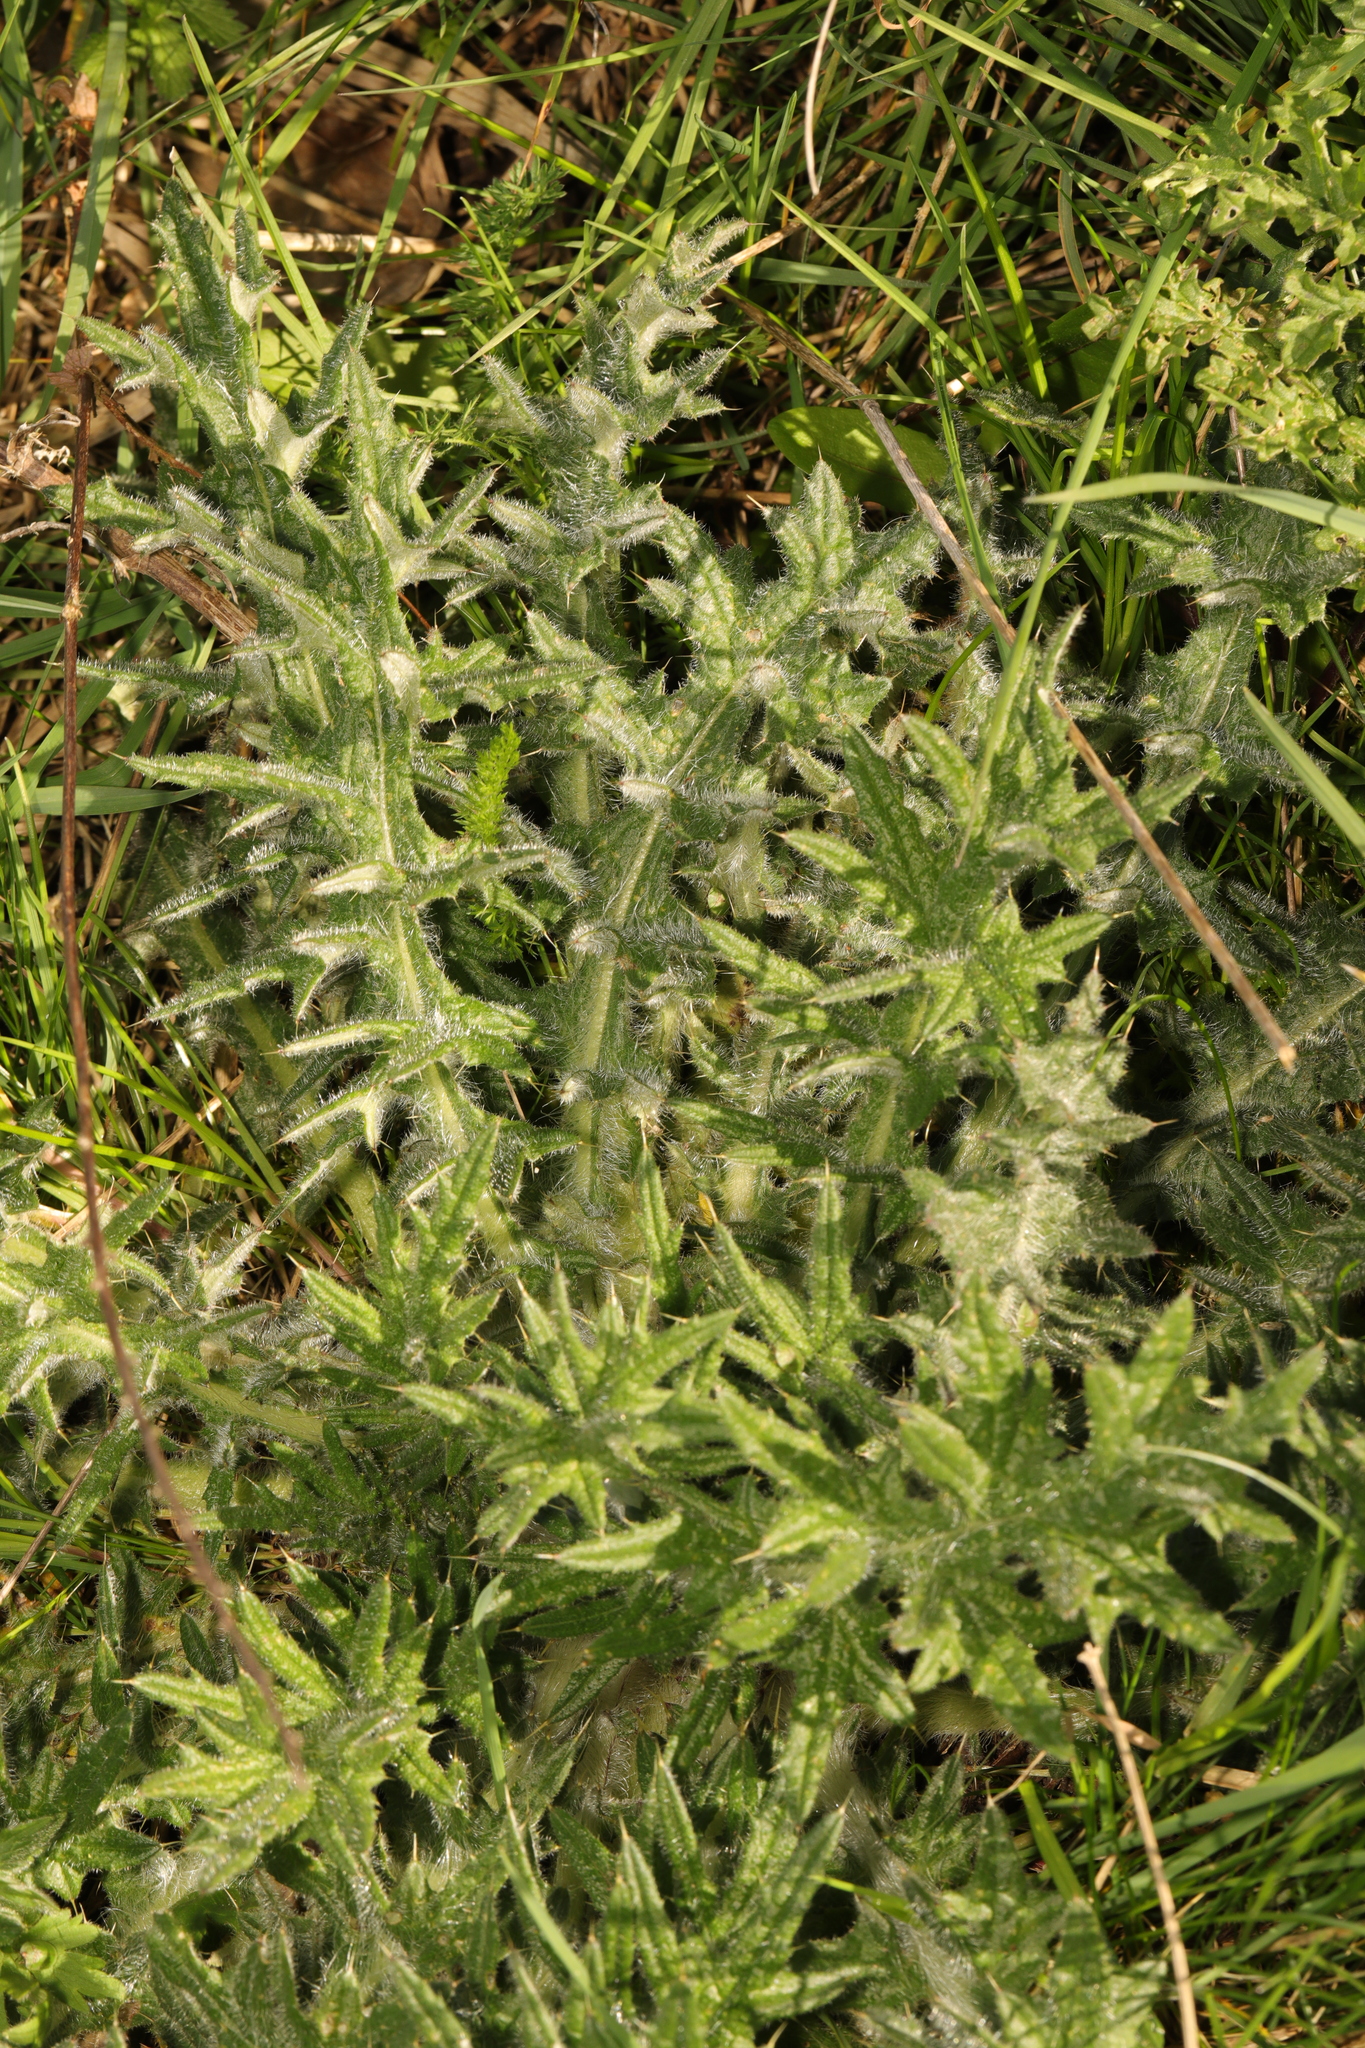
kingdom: Plantae
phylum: Tracheophyta
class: Magnoliopsida
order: Asterales
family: Asteraceae
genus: Cirsium
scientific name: Cirsium vulgare
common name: Bull thistle
